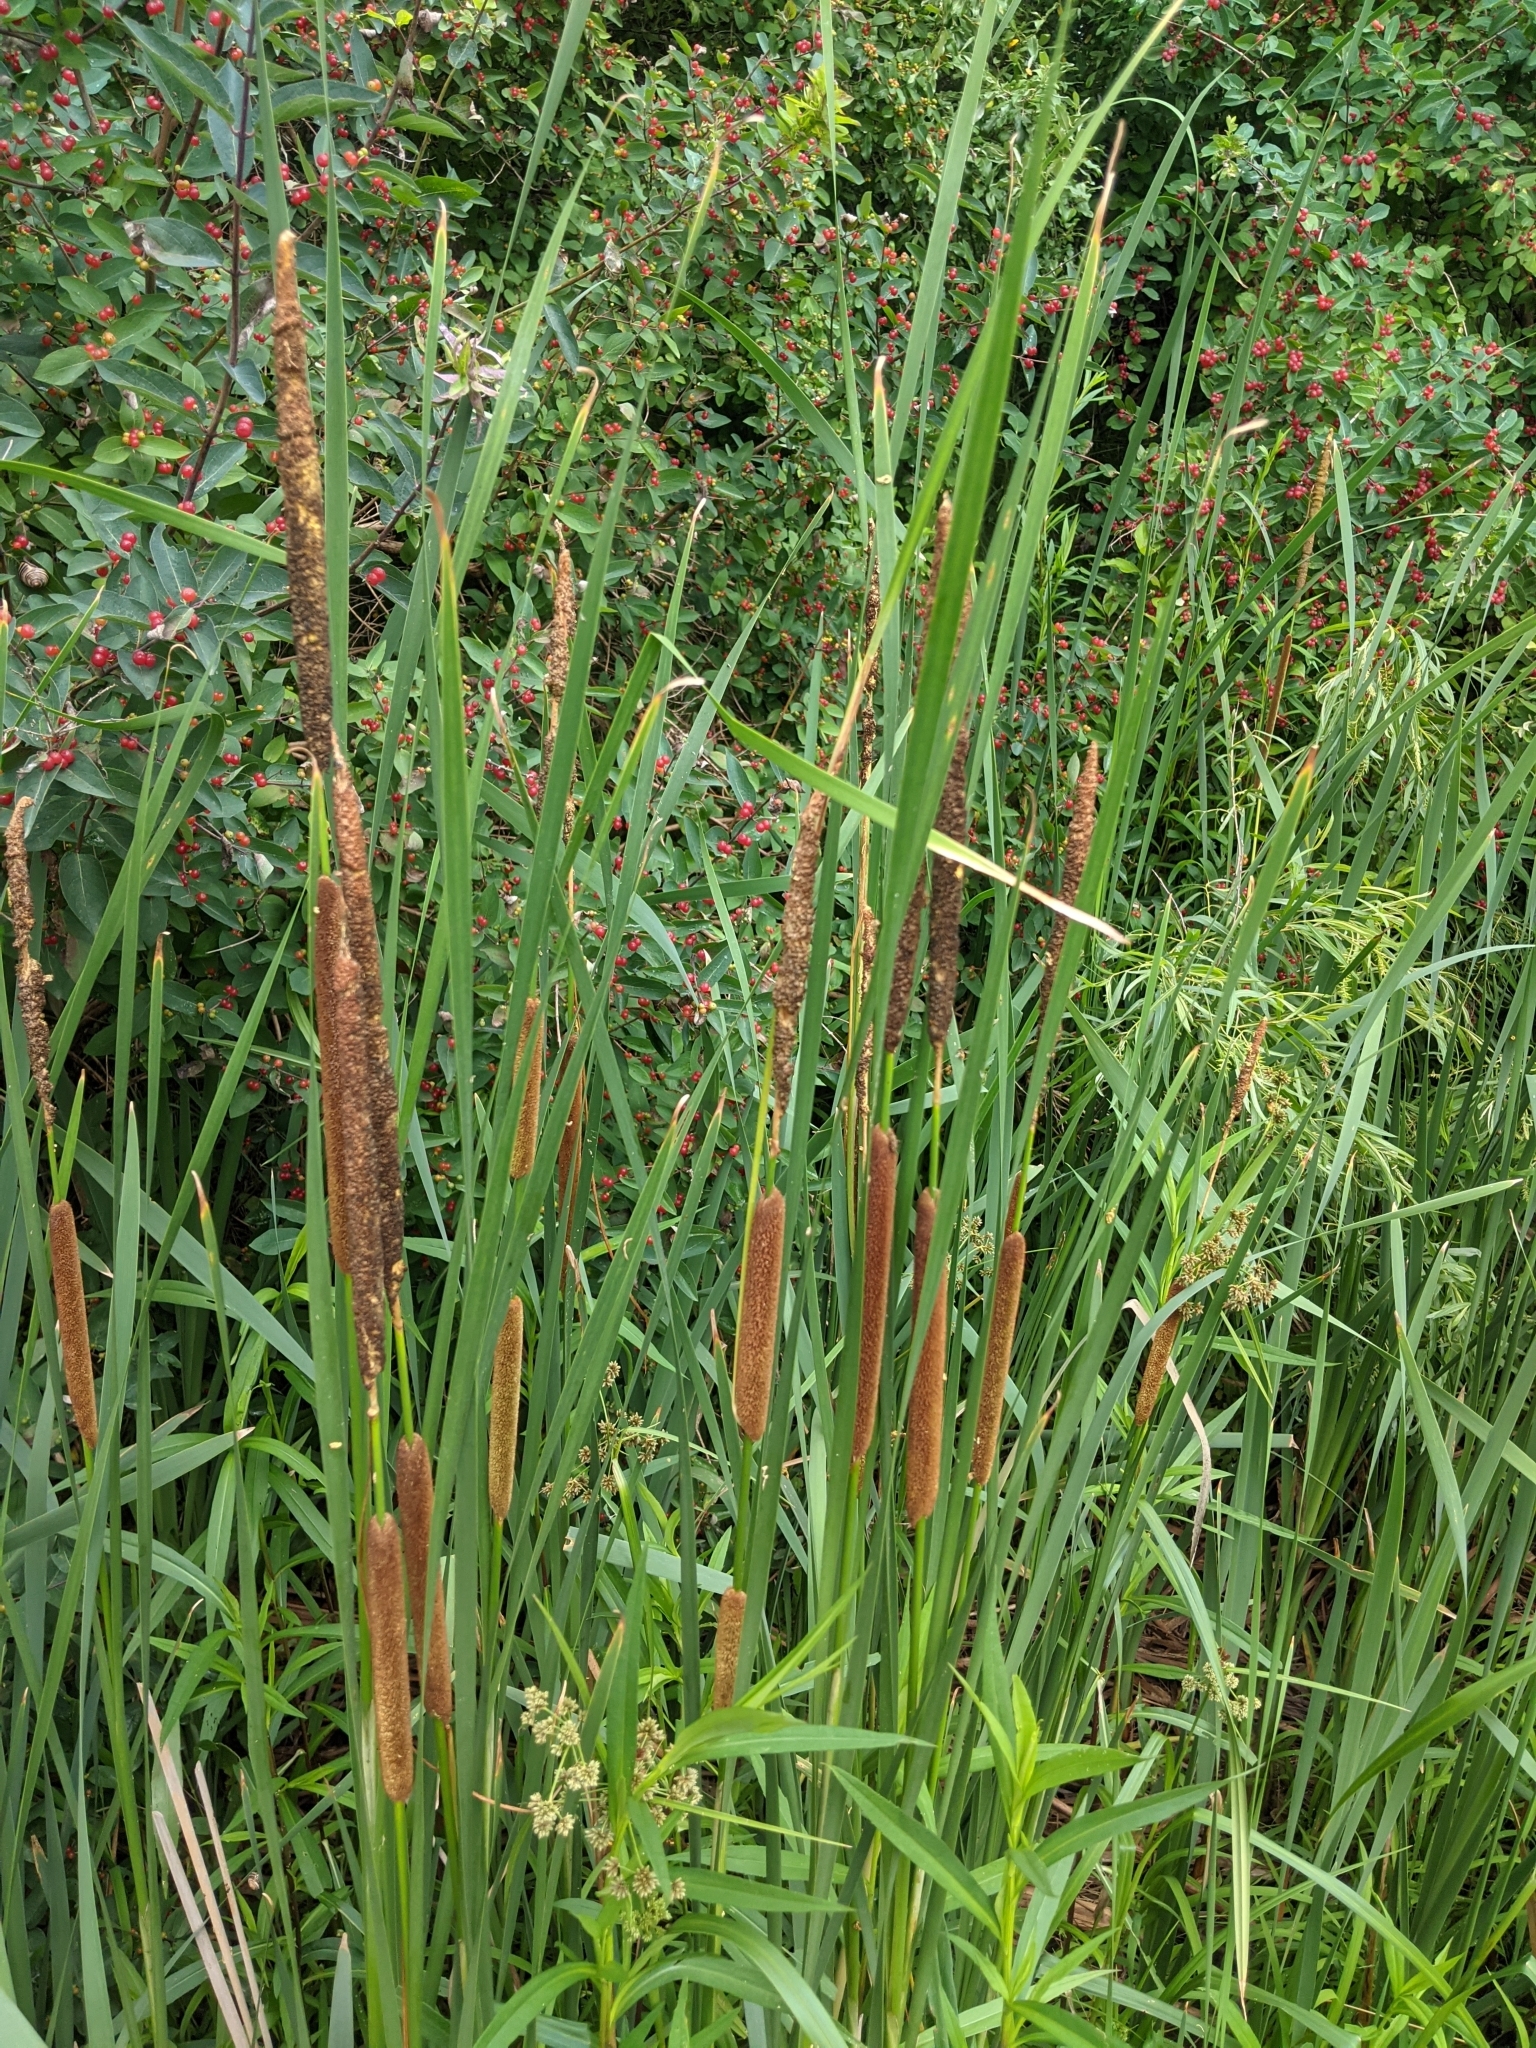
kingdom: Plantae
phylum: Tracheophyta
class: Liliopsida
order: Poales
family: Typhaceae
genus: Typha
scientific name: Typha angustifolia
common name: Lesser bulrush
